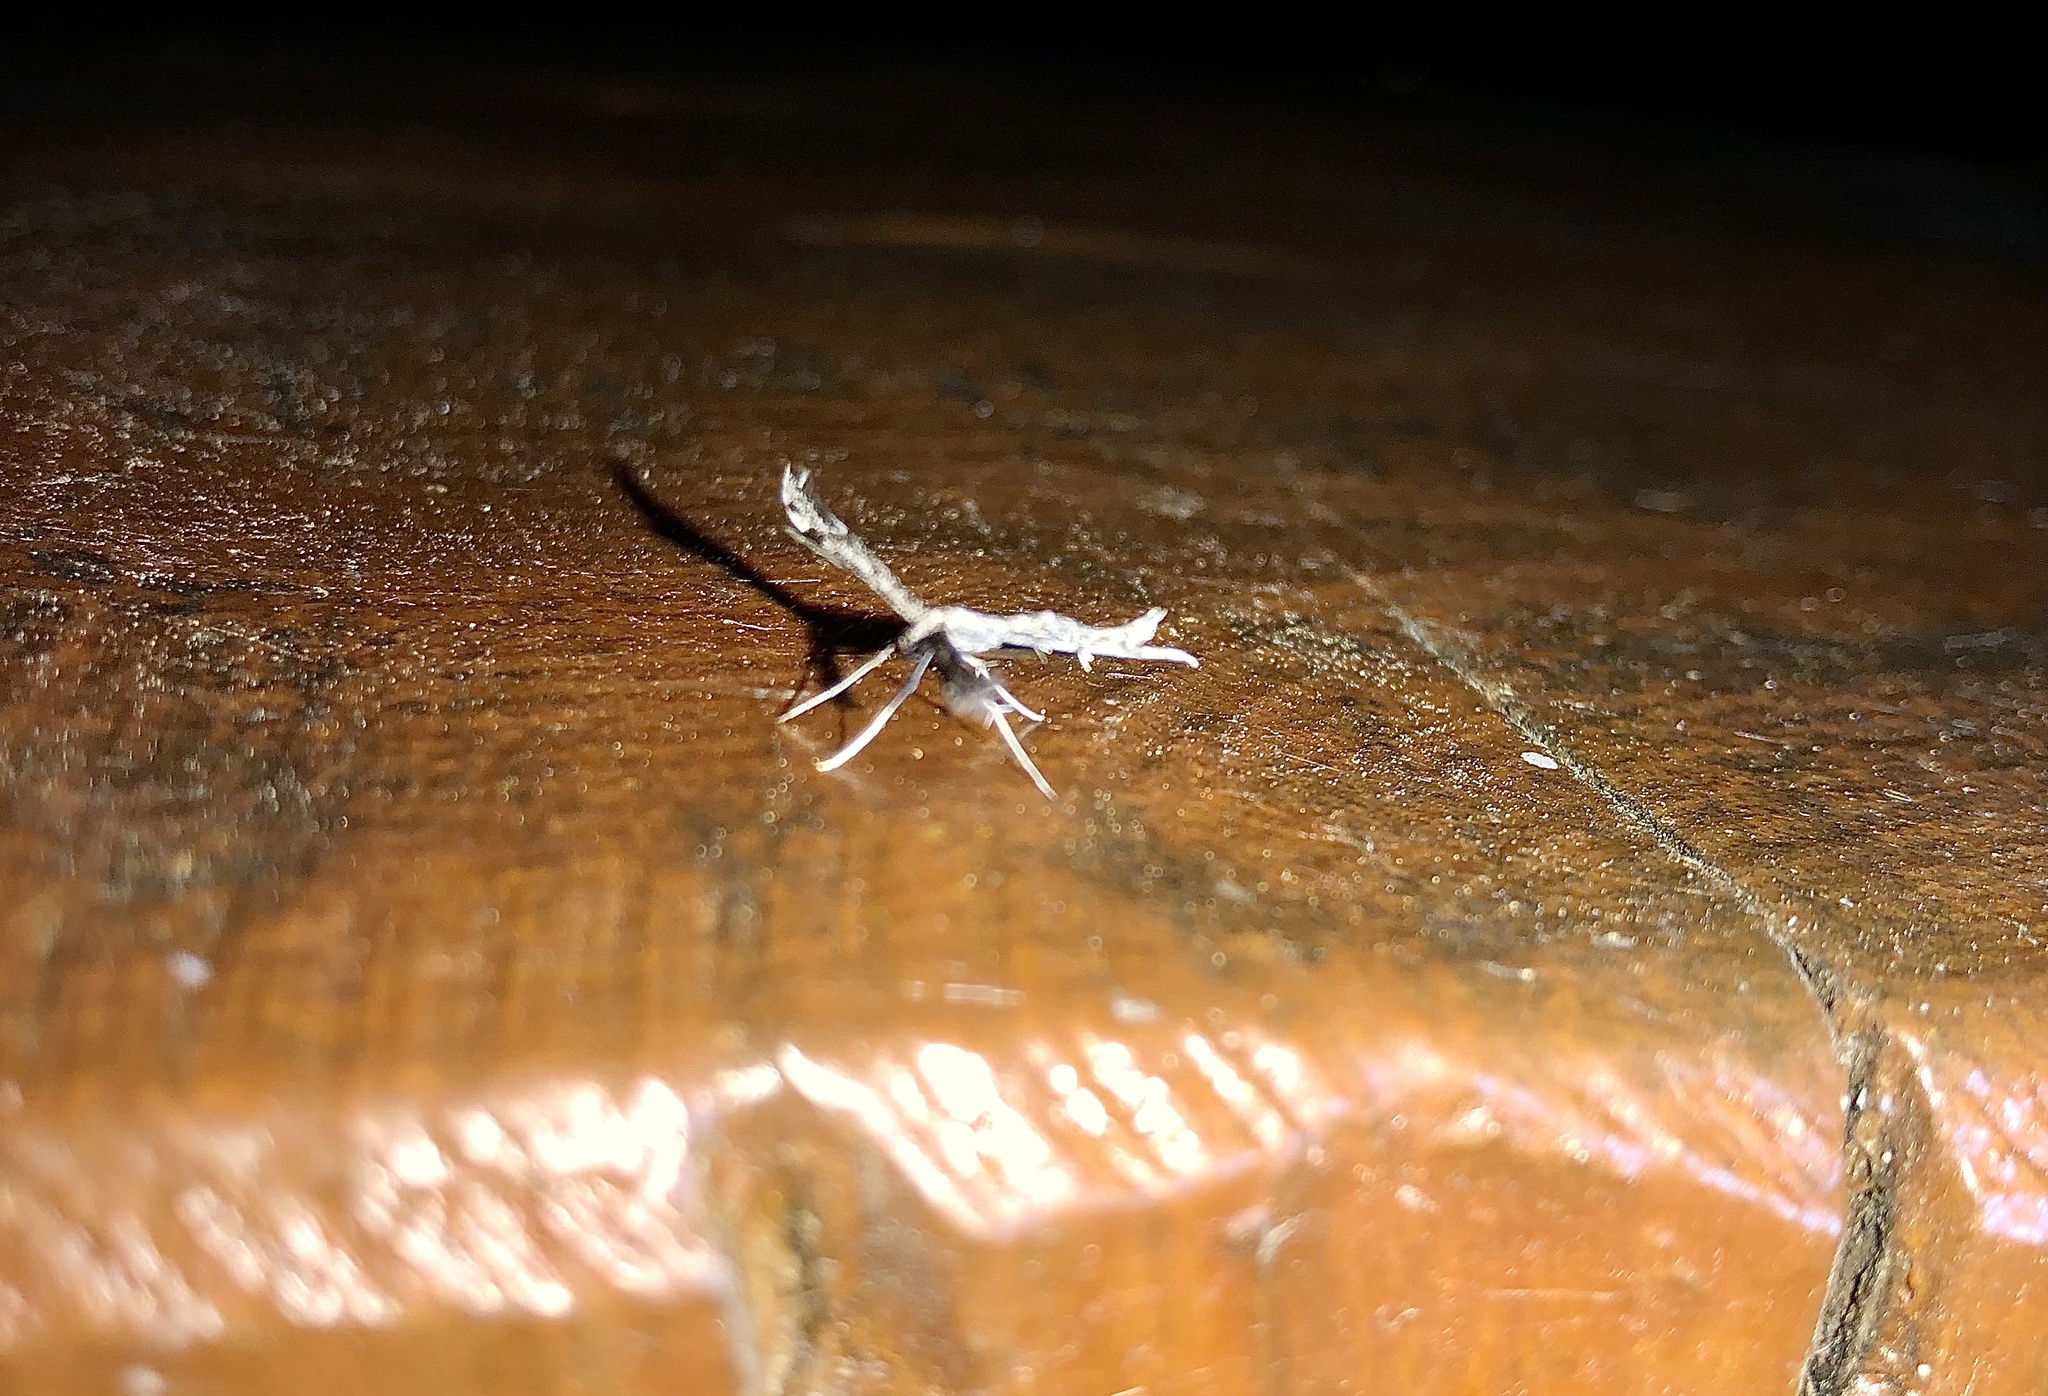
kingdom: Animalia
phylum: Arthropoda
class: Insecta
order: Lepidoptera
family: Pterophoridae
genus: Hellinsia
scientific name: Hellinsia inquinatus
